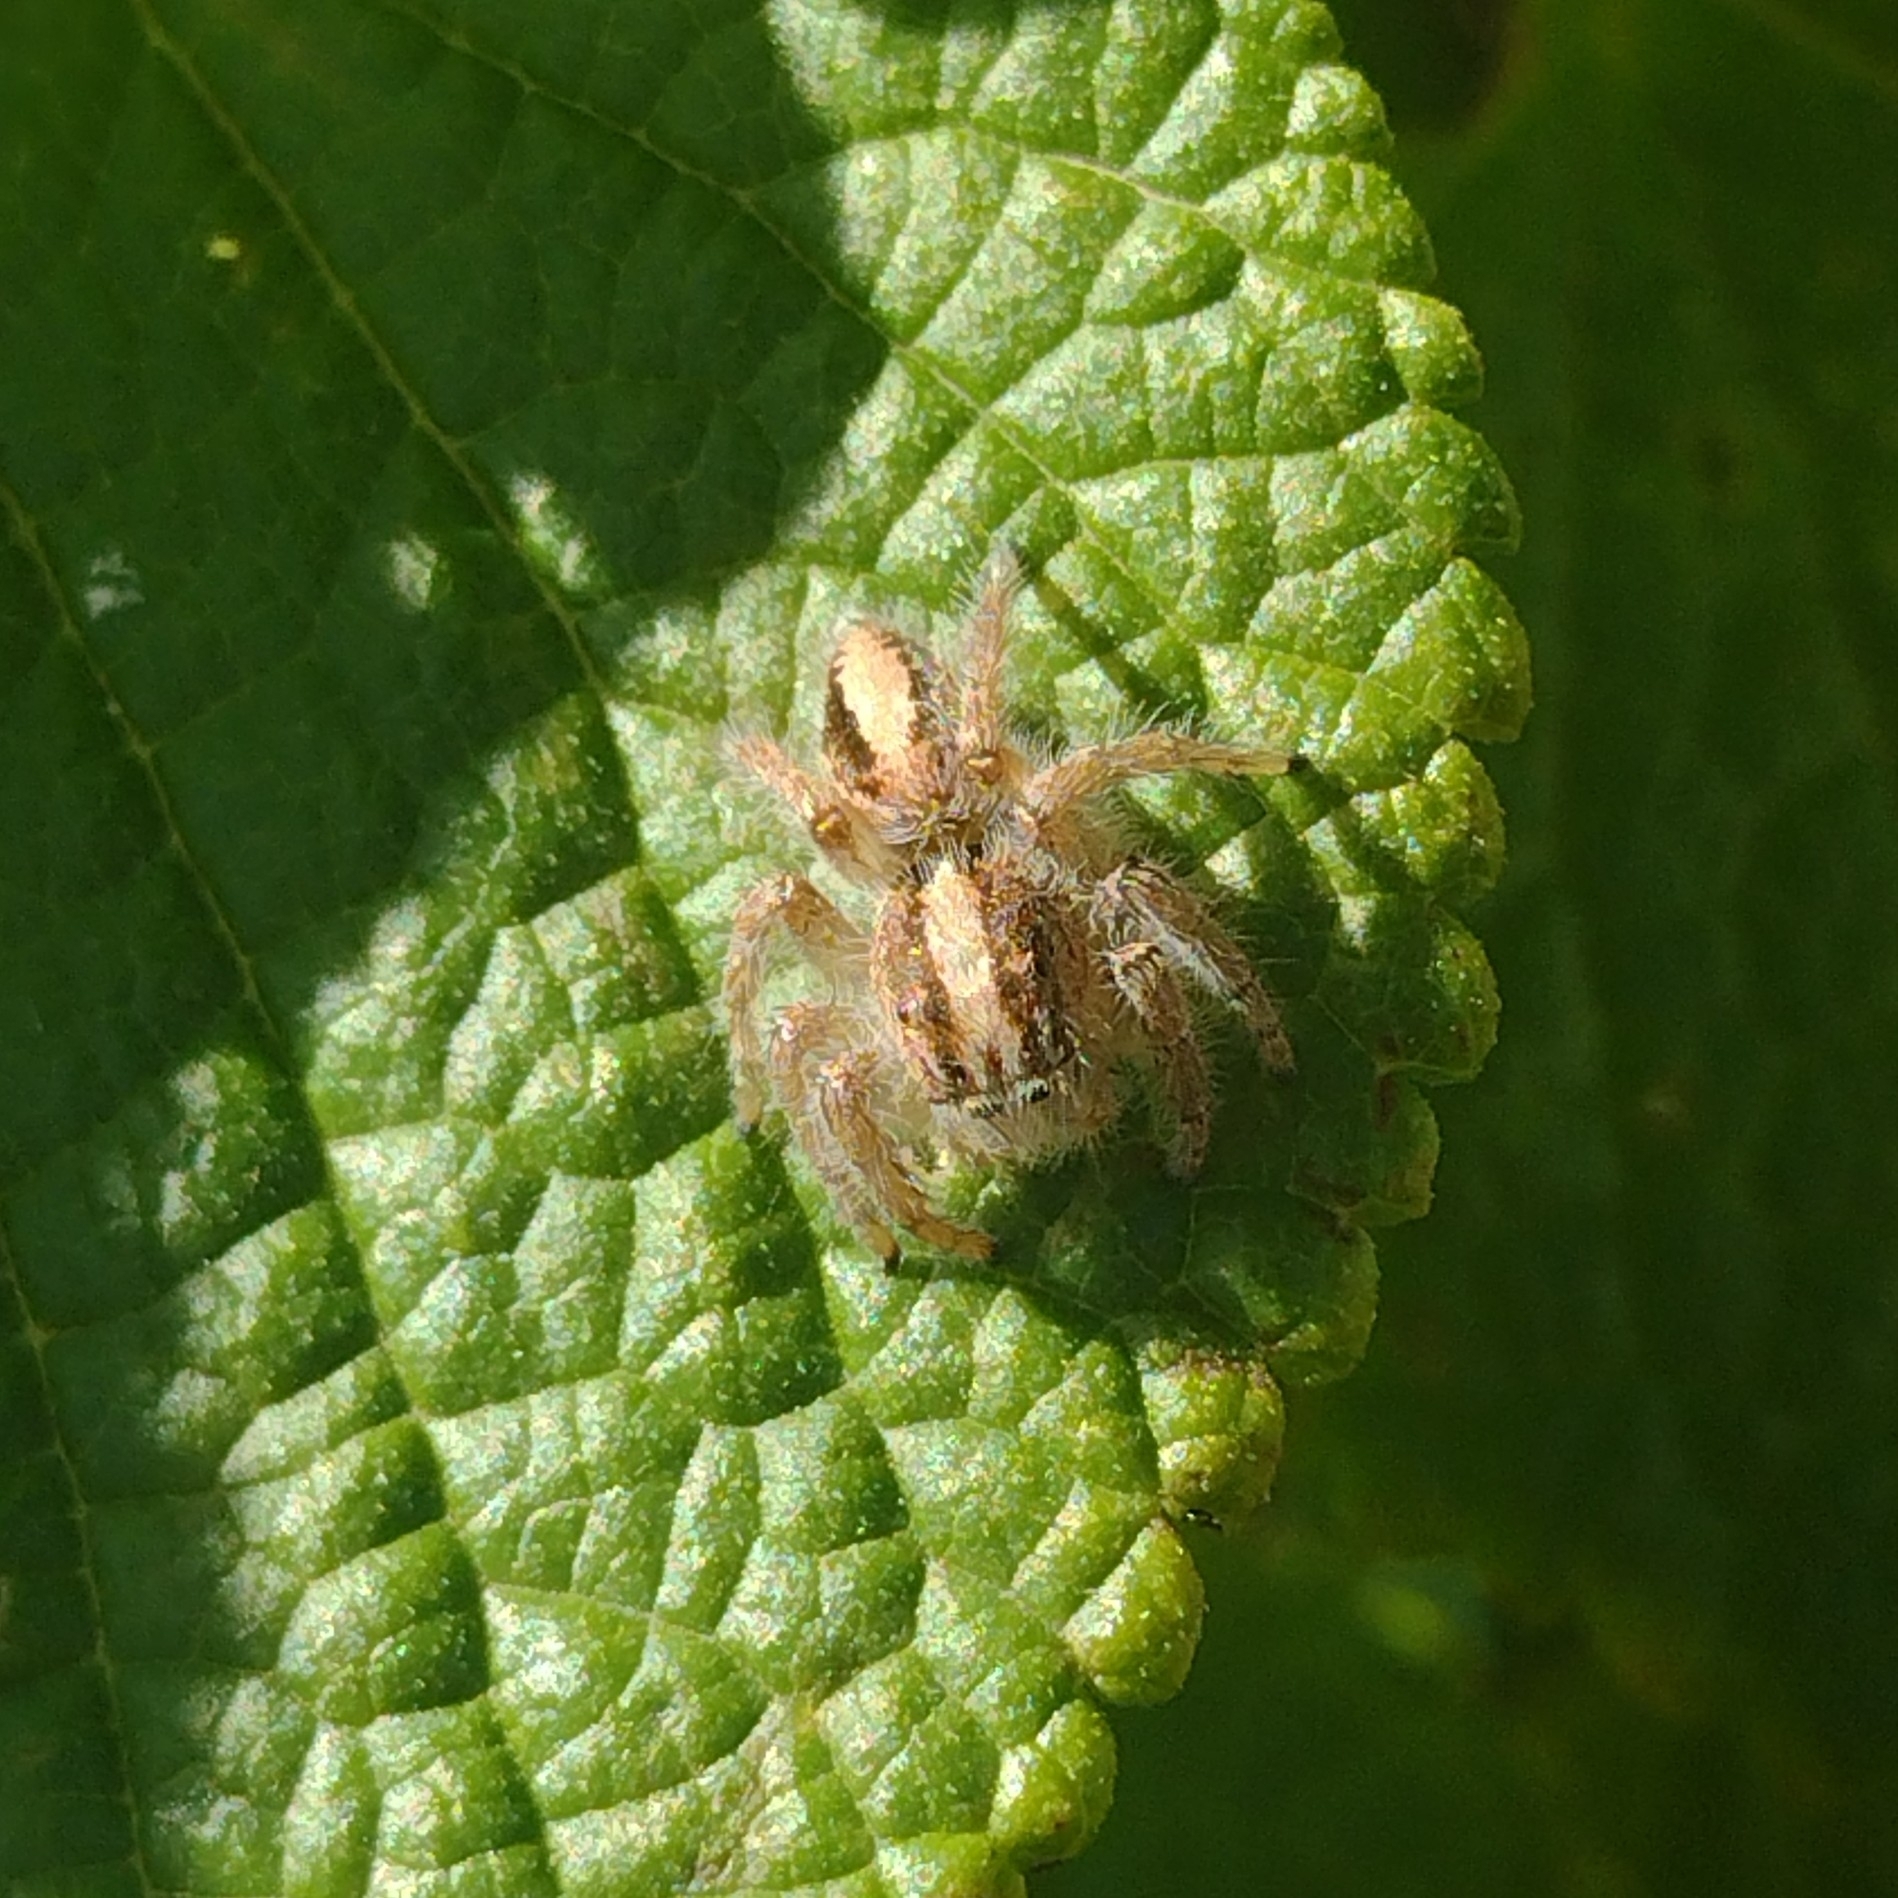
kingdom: Animalia
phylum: Arthropoda
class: Arachnida
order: Araneae
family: Salticidae
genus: Megafreya
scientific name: Megafreya sutrix
